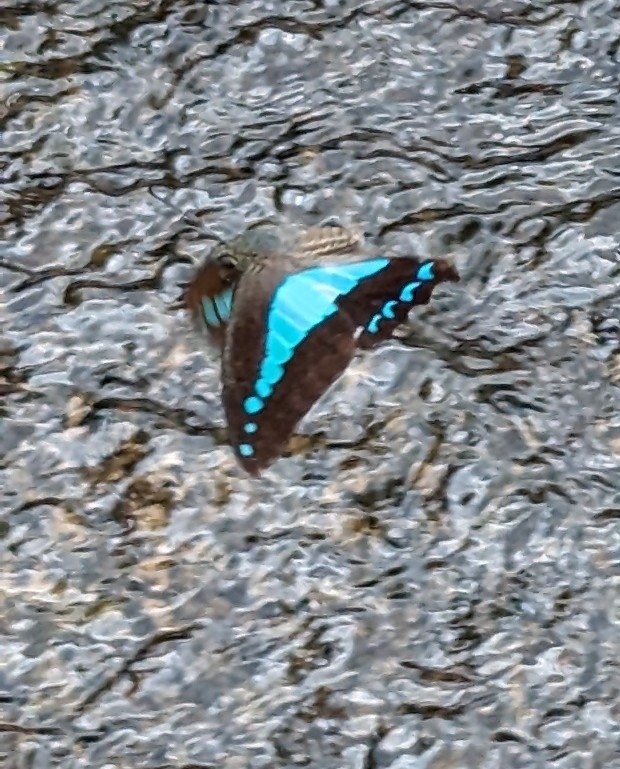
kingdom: Animalia
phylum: Arthropoda
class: Insecta
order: Lepidoptera
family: Papilionidae
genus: Graphium
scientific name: Graphium
